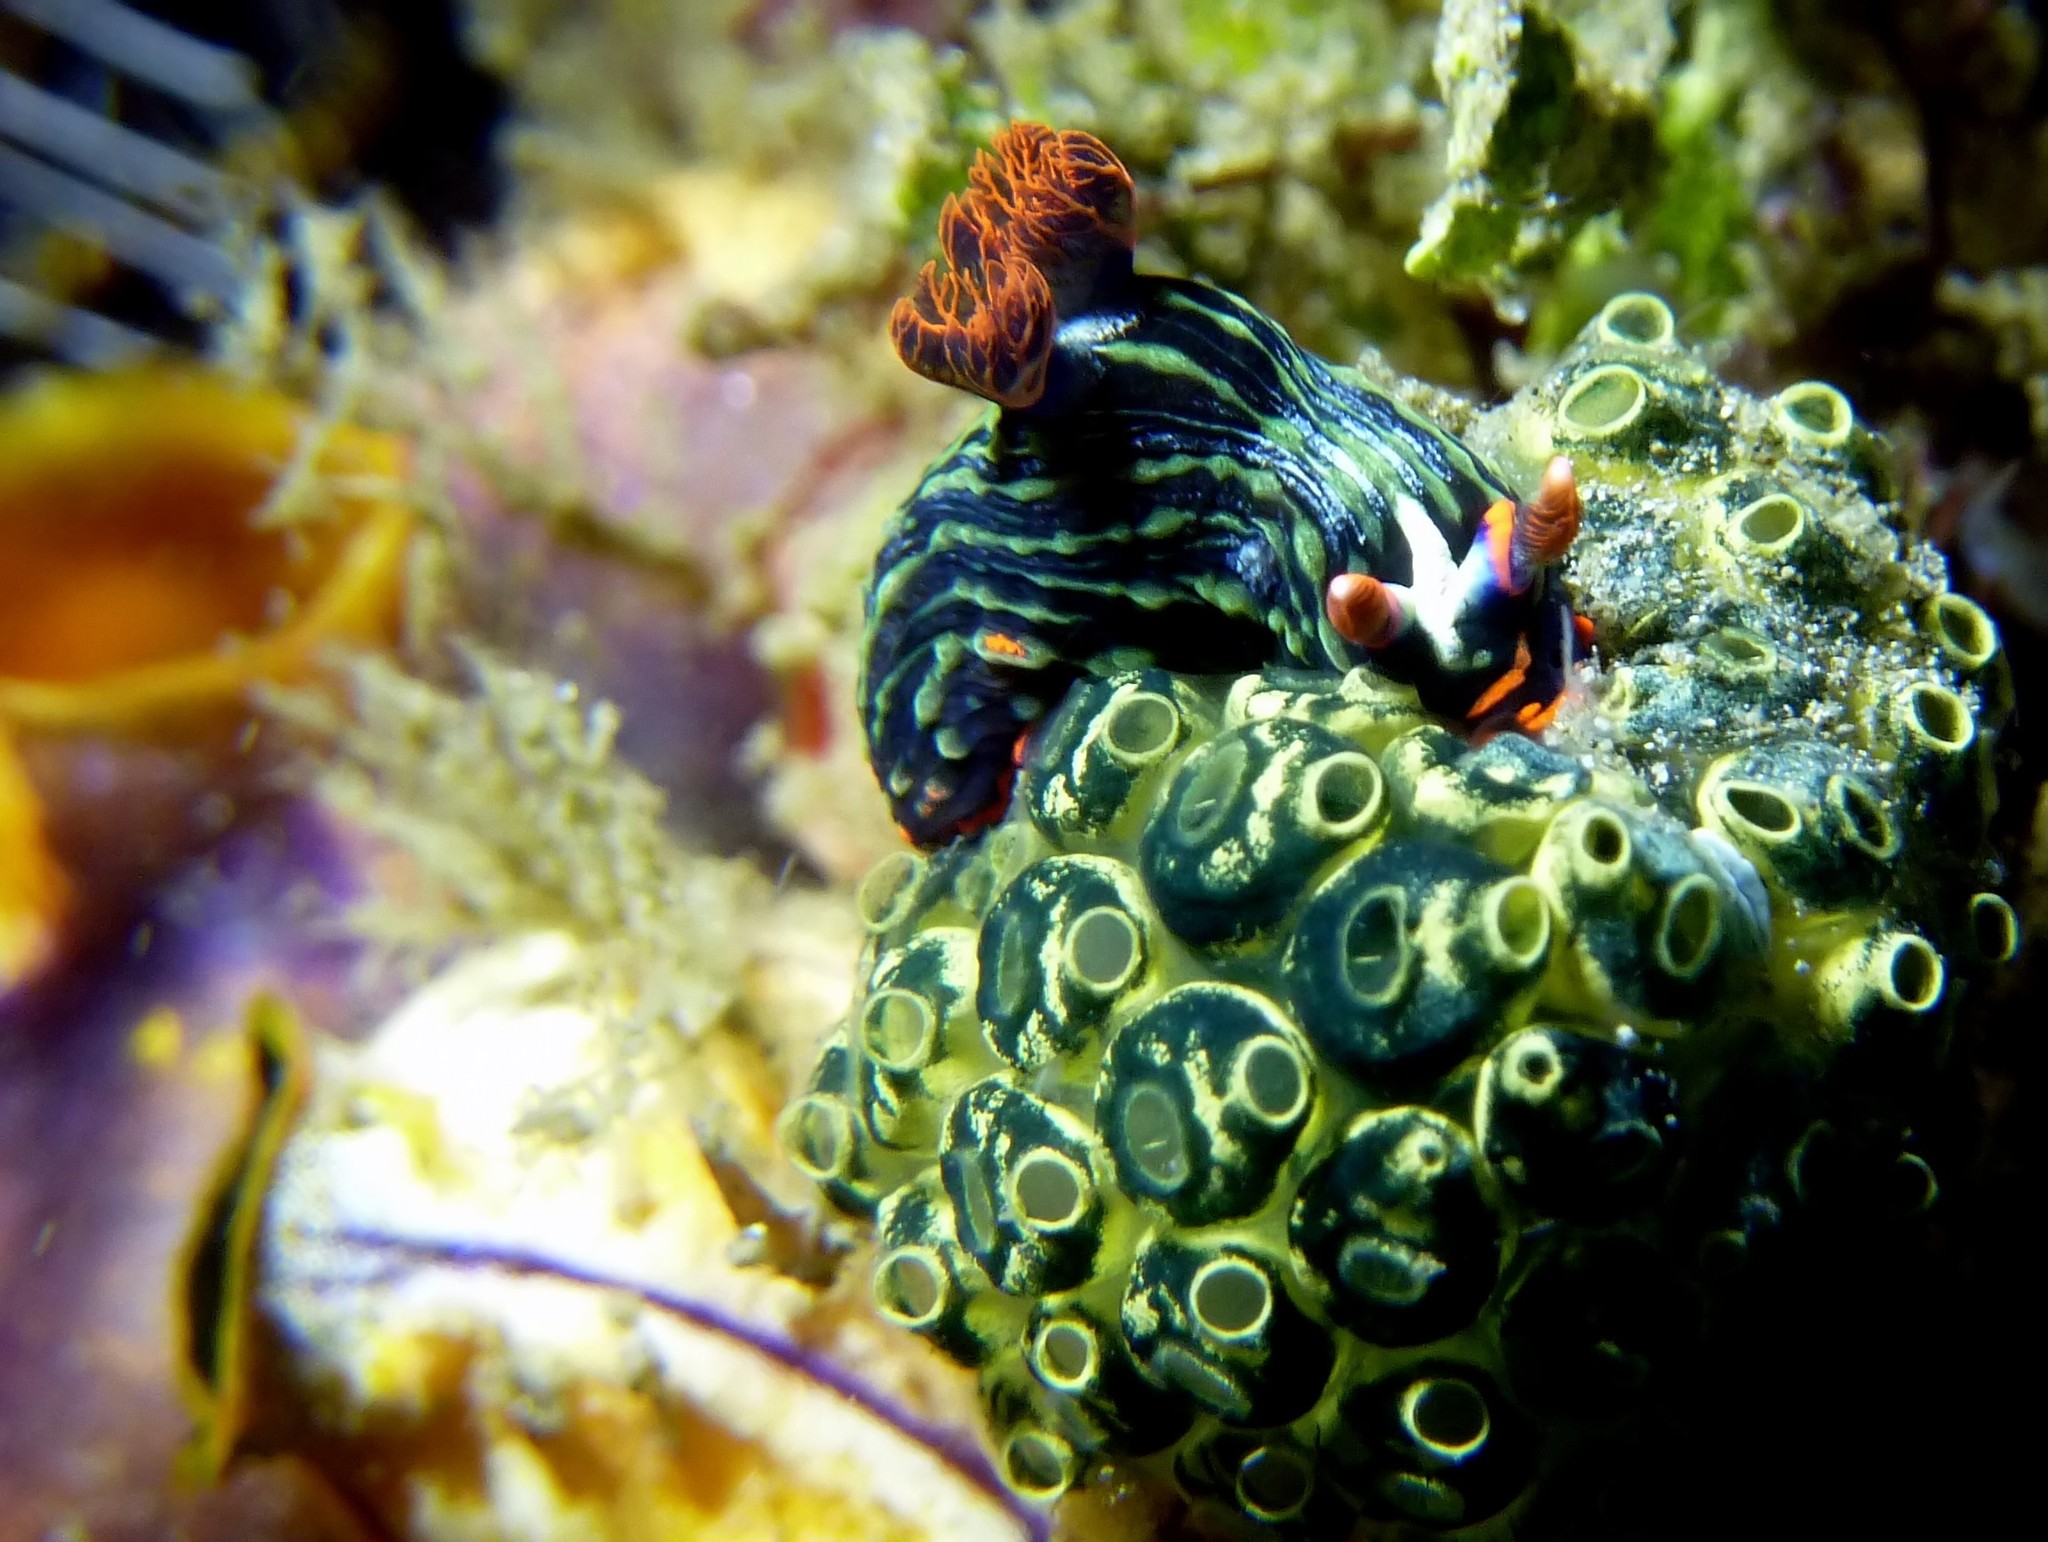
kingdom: Animalia
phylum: Mollusca
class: Gastropoda
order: Nudibranchia
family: Polyceridae
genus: Nembrotha
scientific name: Nembrotha kubaryana
